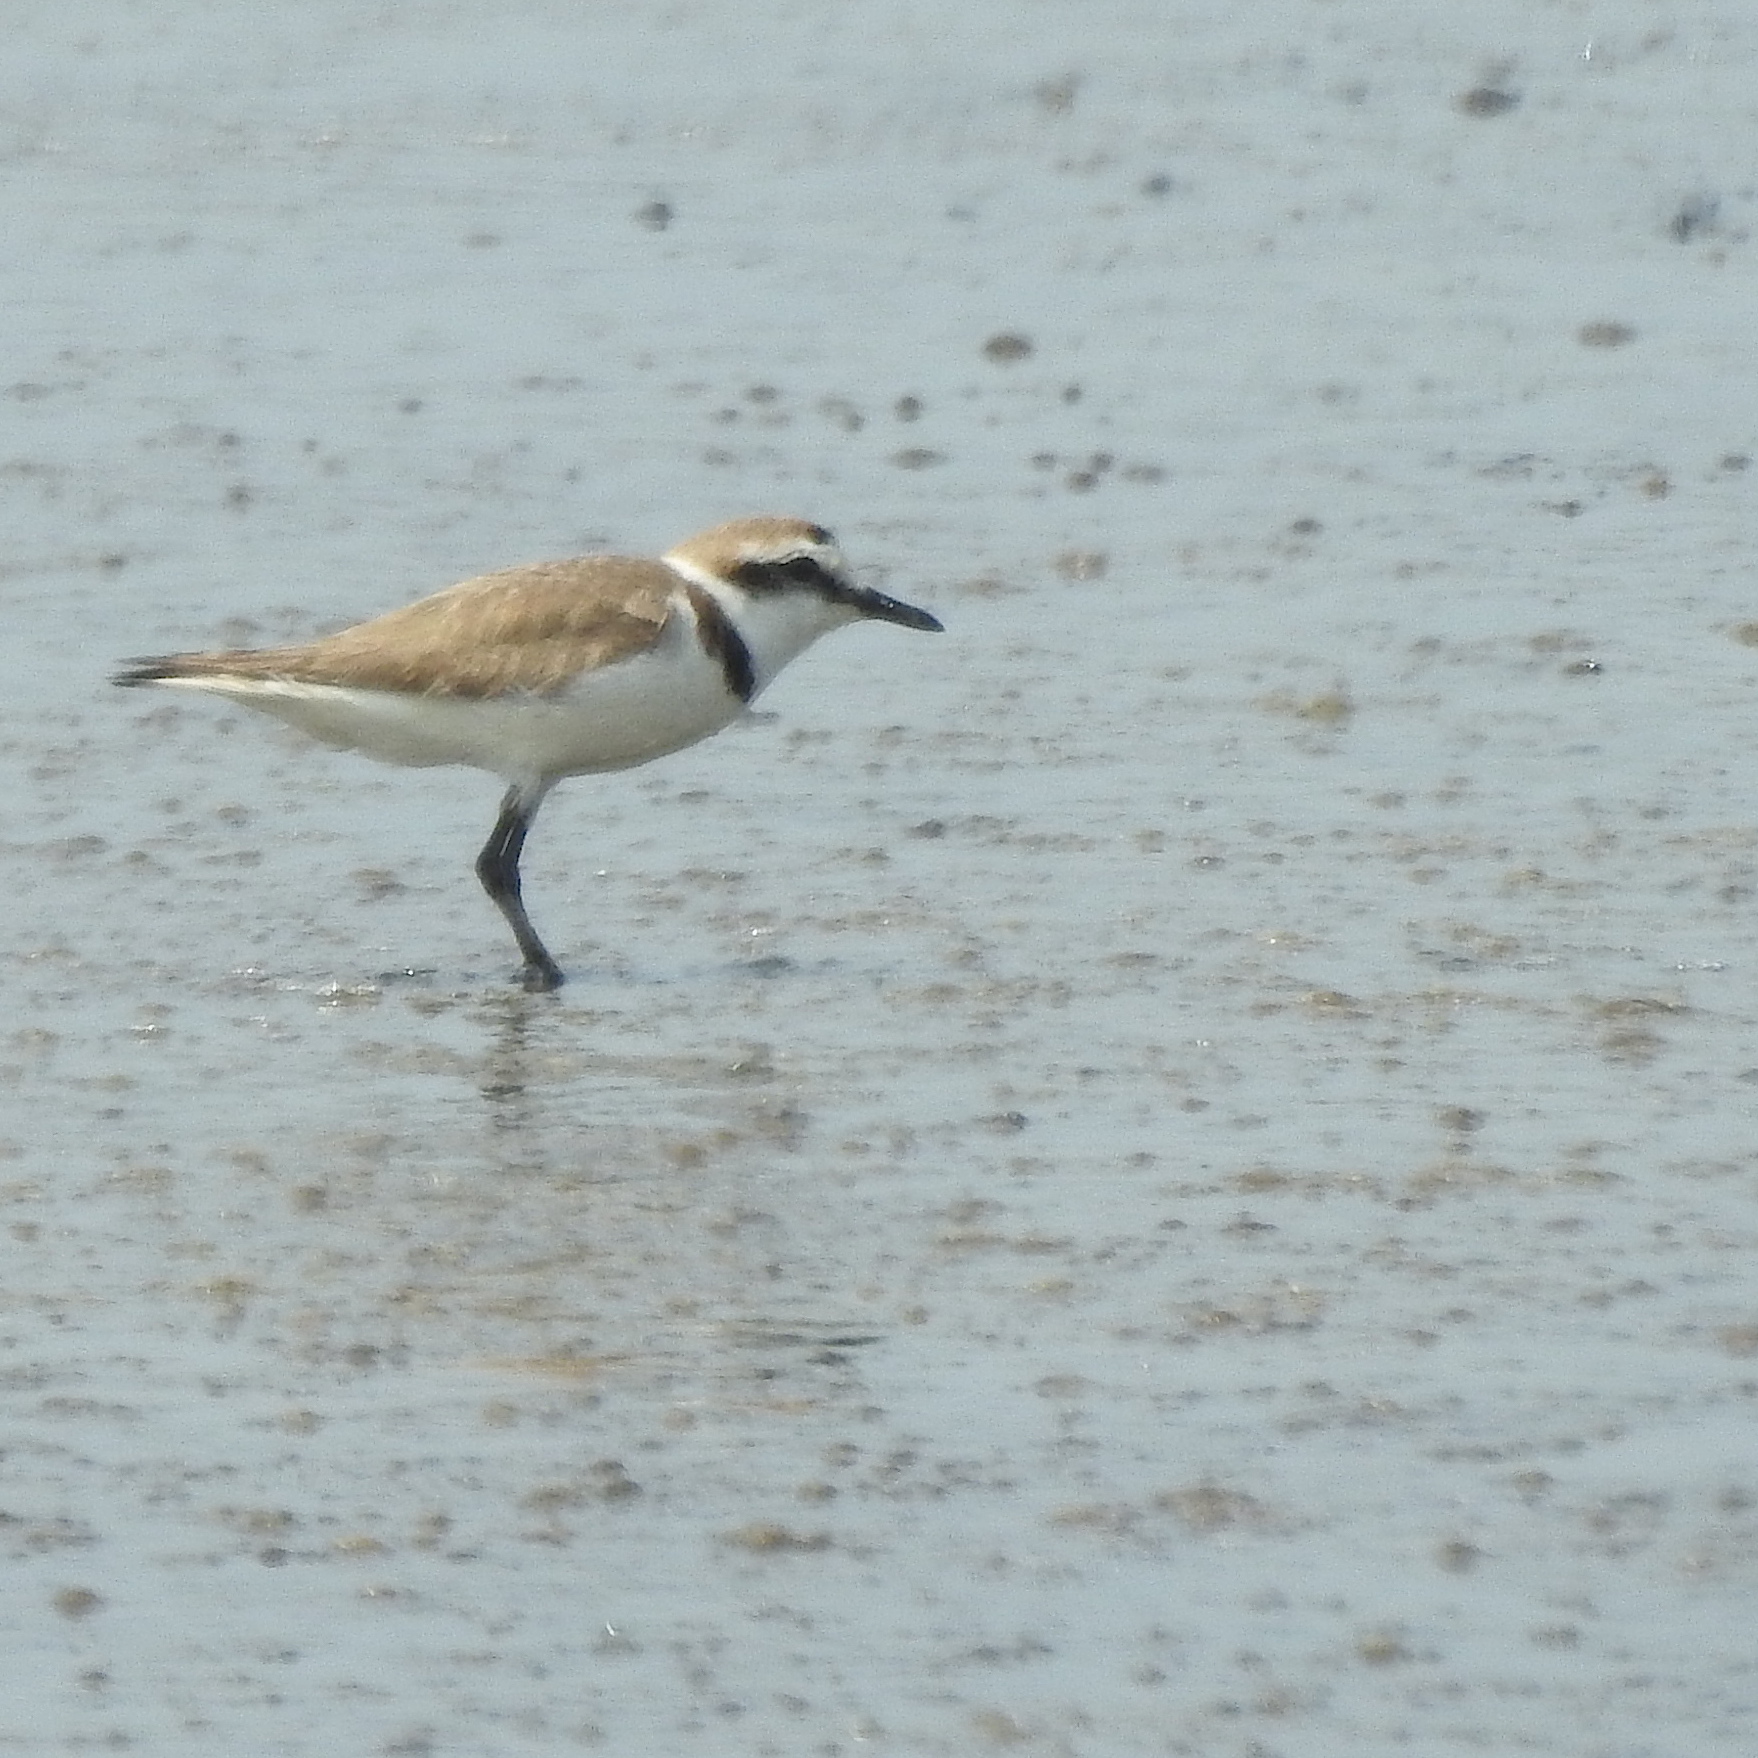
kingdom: Animalia
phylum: Chordata
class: Aves
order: Charadriiformes
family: Charadriidae
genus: Charadrius
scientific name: Charadrius alexandrinus
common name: Kentish plover
